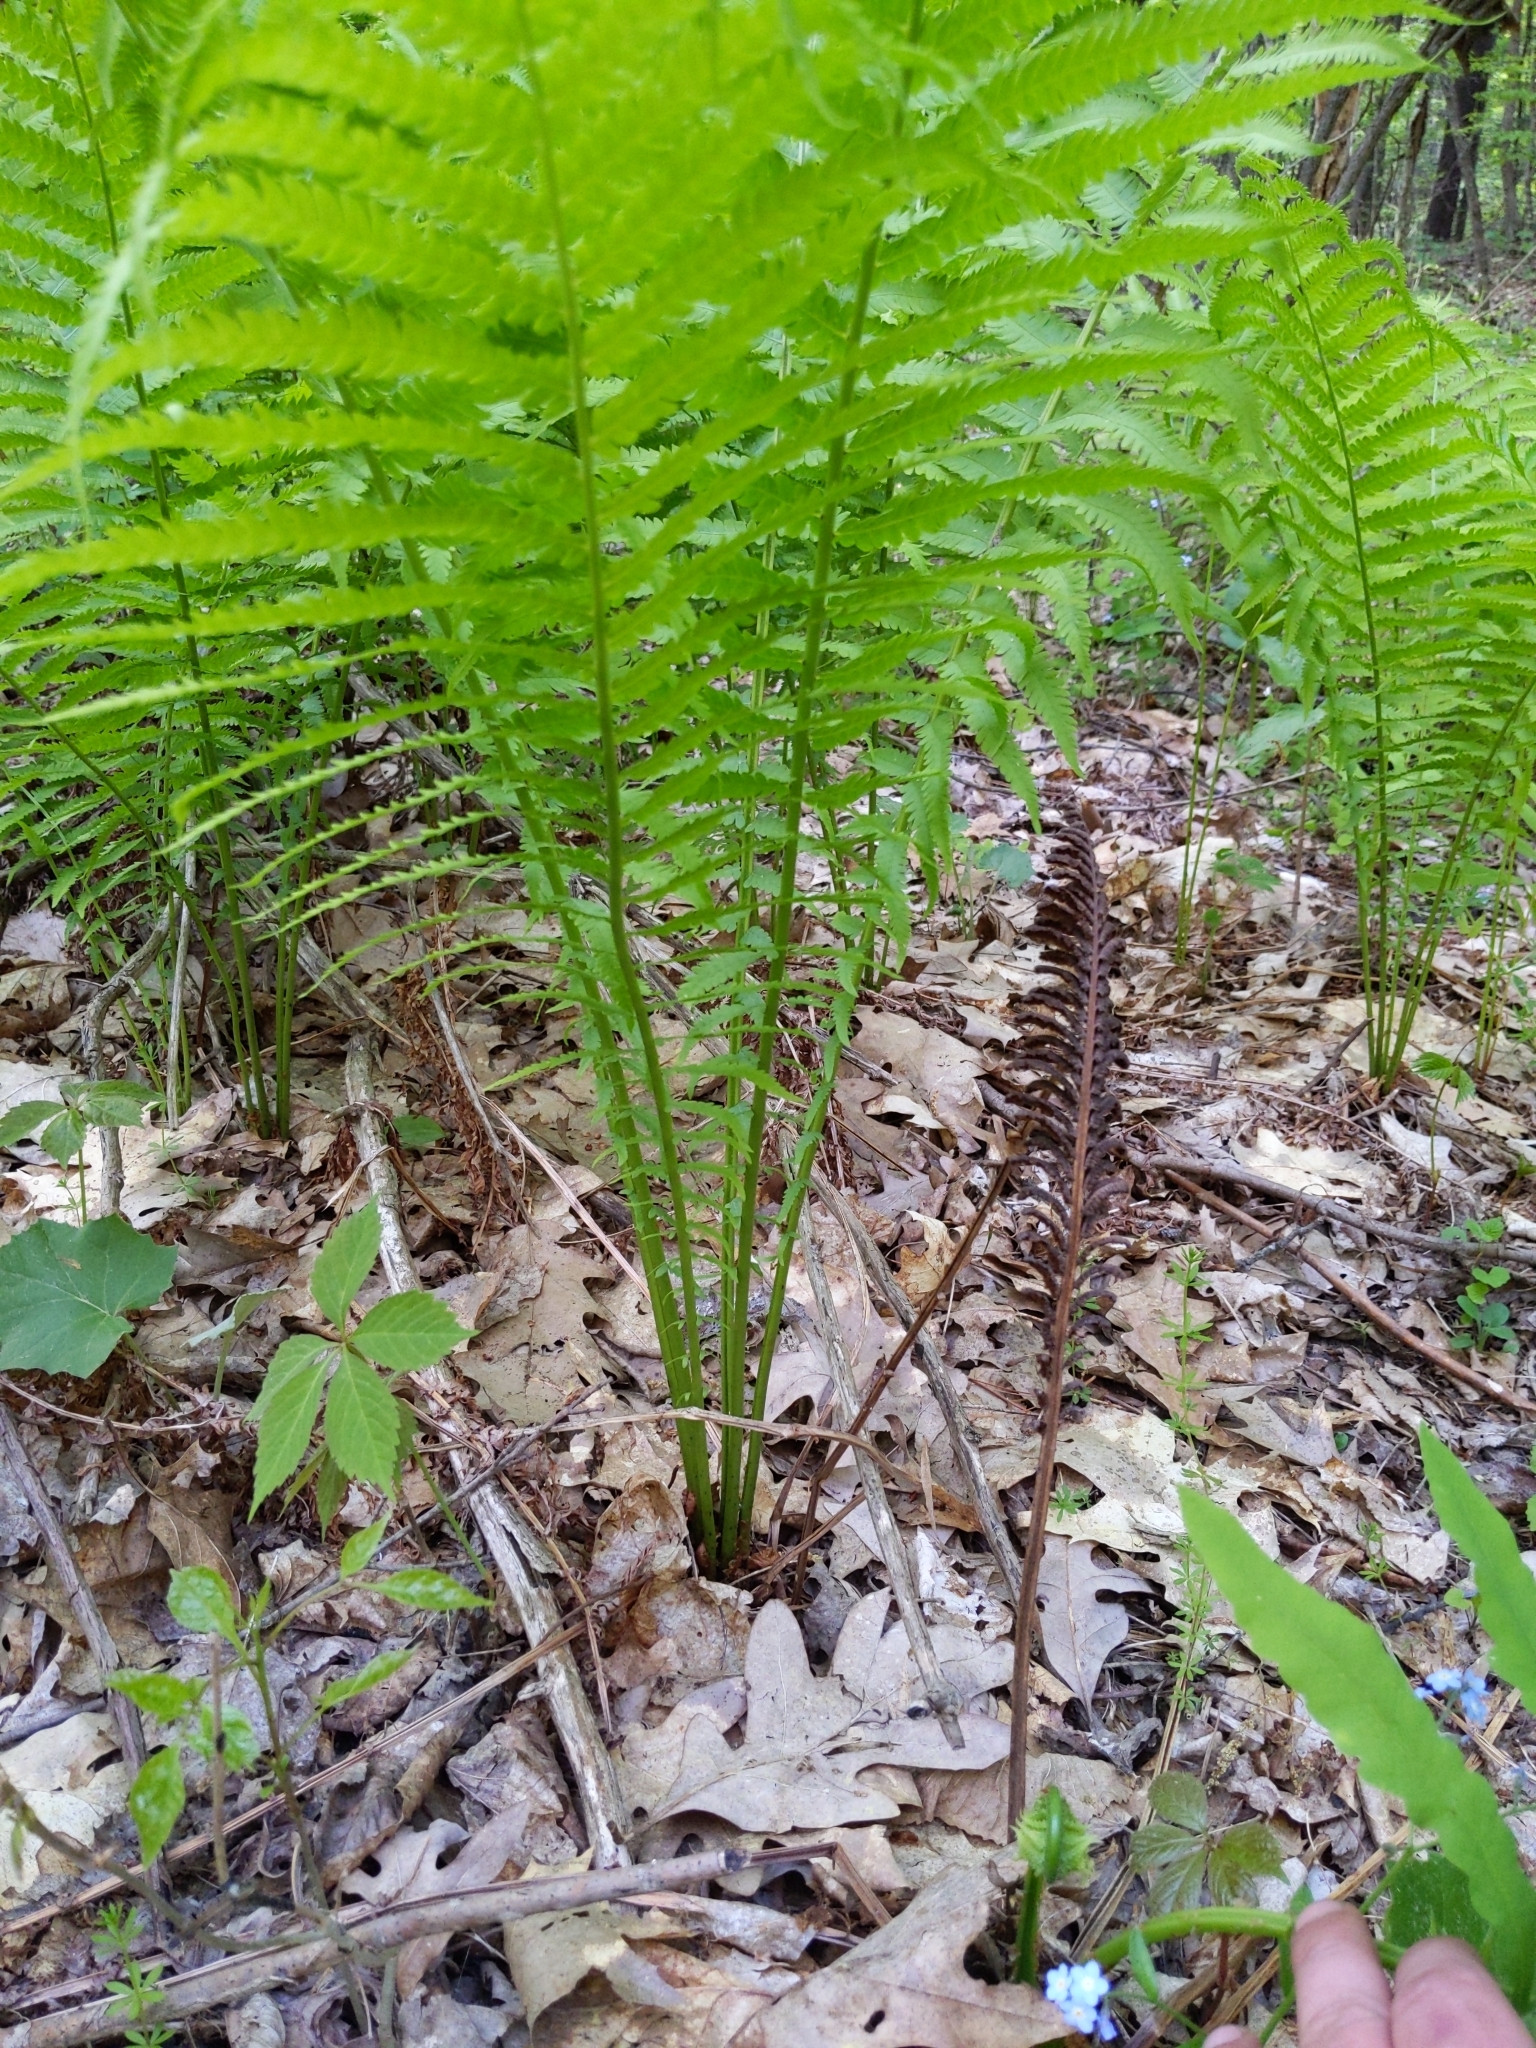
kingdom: Plantae
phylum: Tracheophyta
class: Polypodiopsida
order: Polypodiales
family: Onocleaceae
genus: Matteuccia
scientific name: Matteuccia struthiopteris
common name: Ostrich fern
